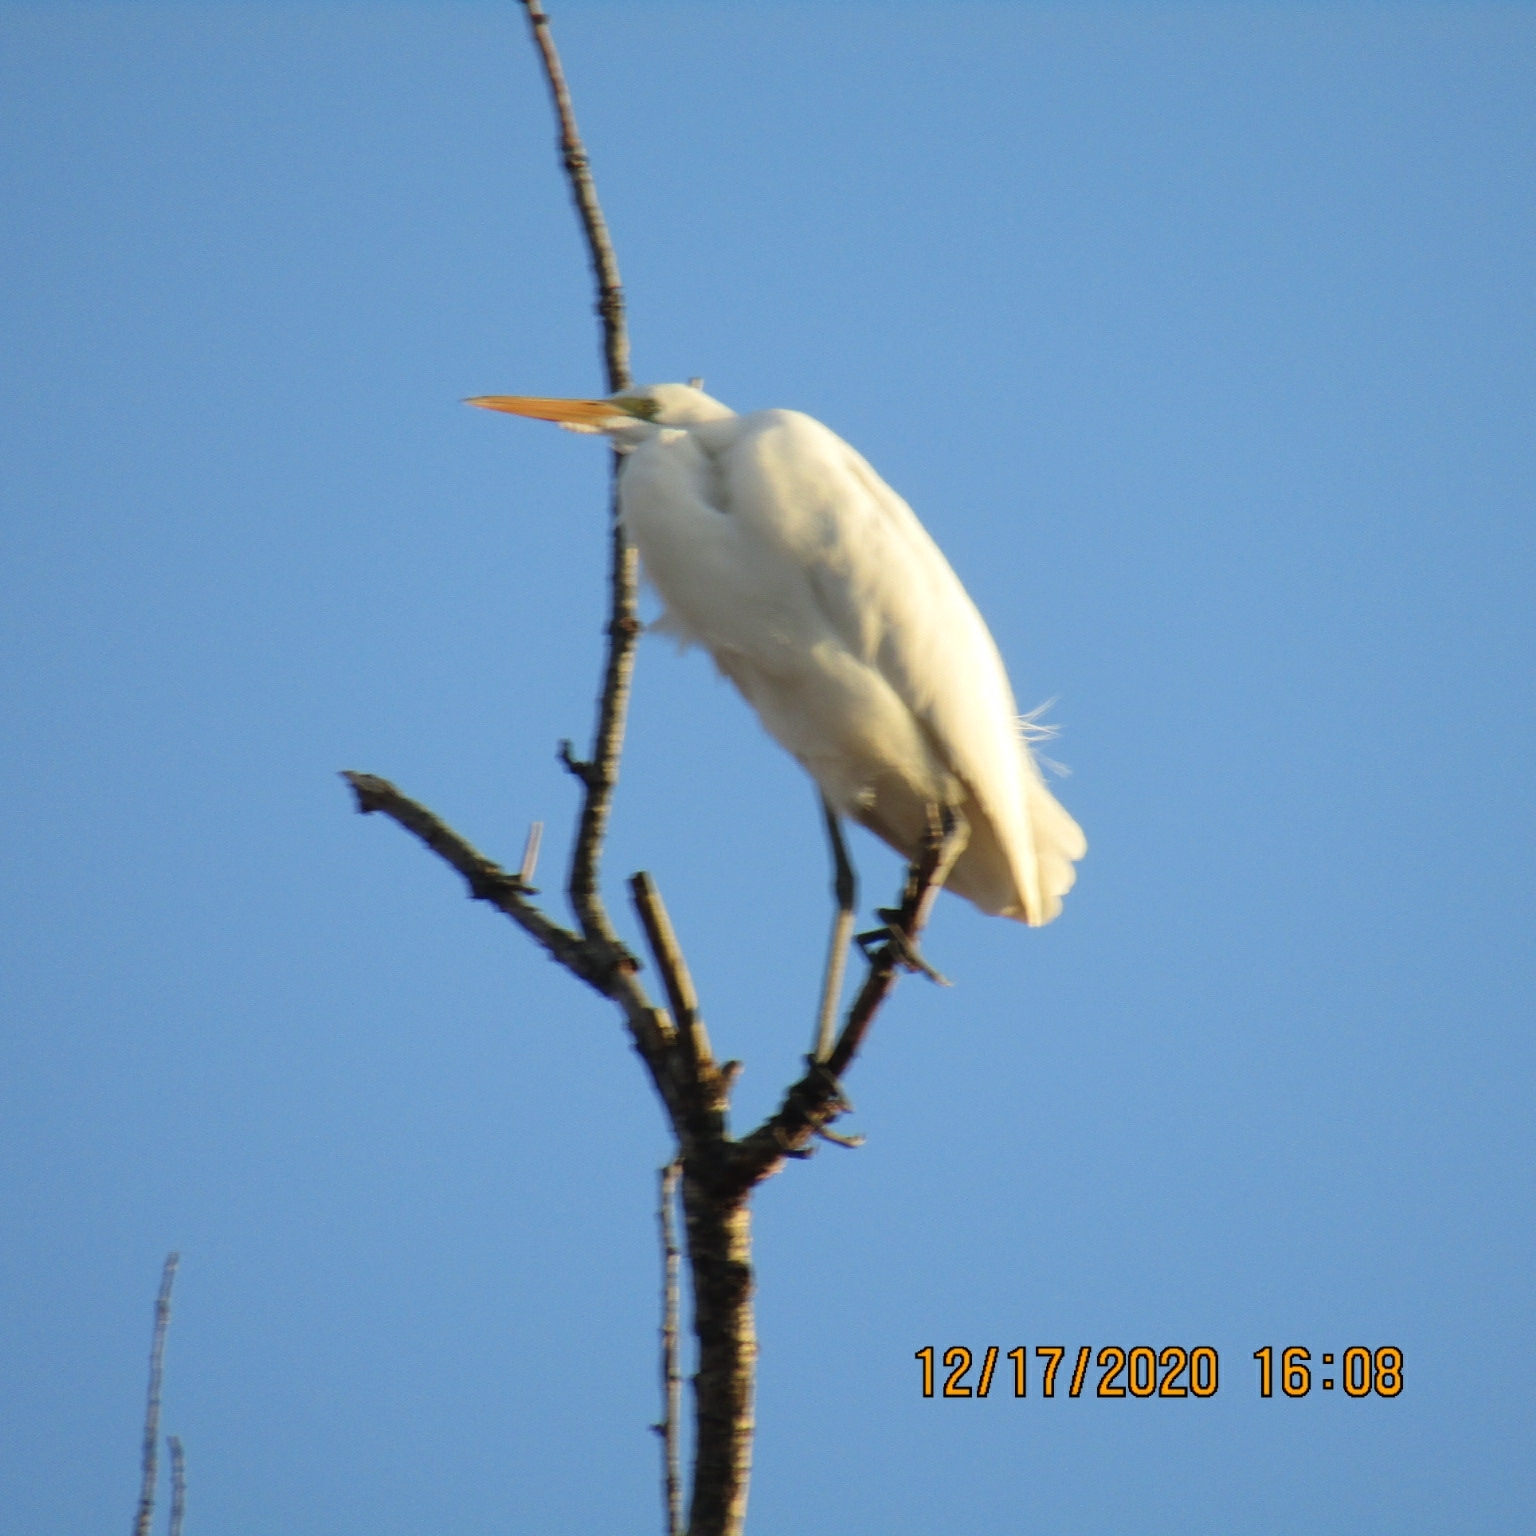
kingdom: Animalia
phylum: Chordata
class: Aves
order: Pelecaniformes
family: Ardeidae
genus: Ardea
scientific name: Ardea alba
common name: Great egret
